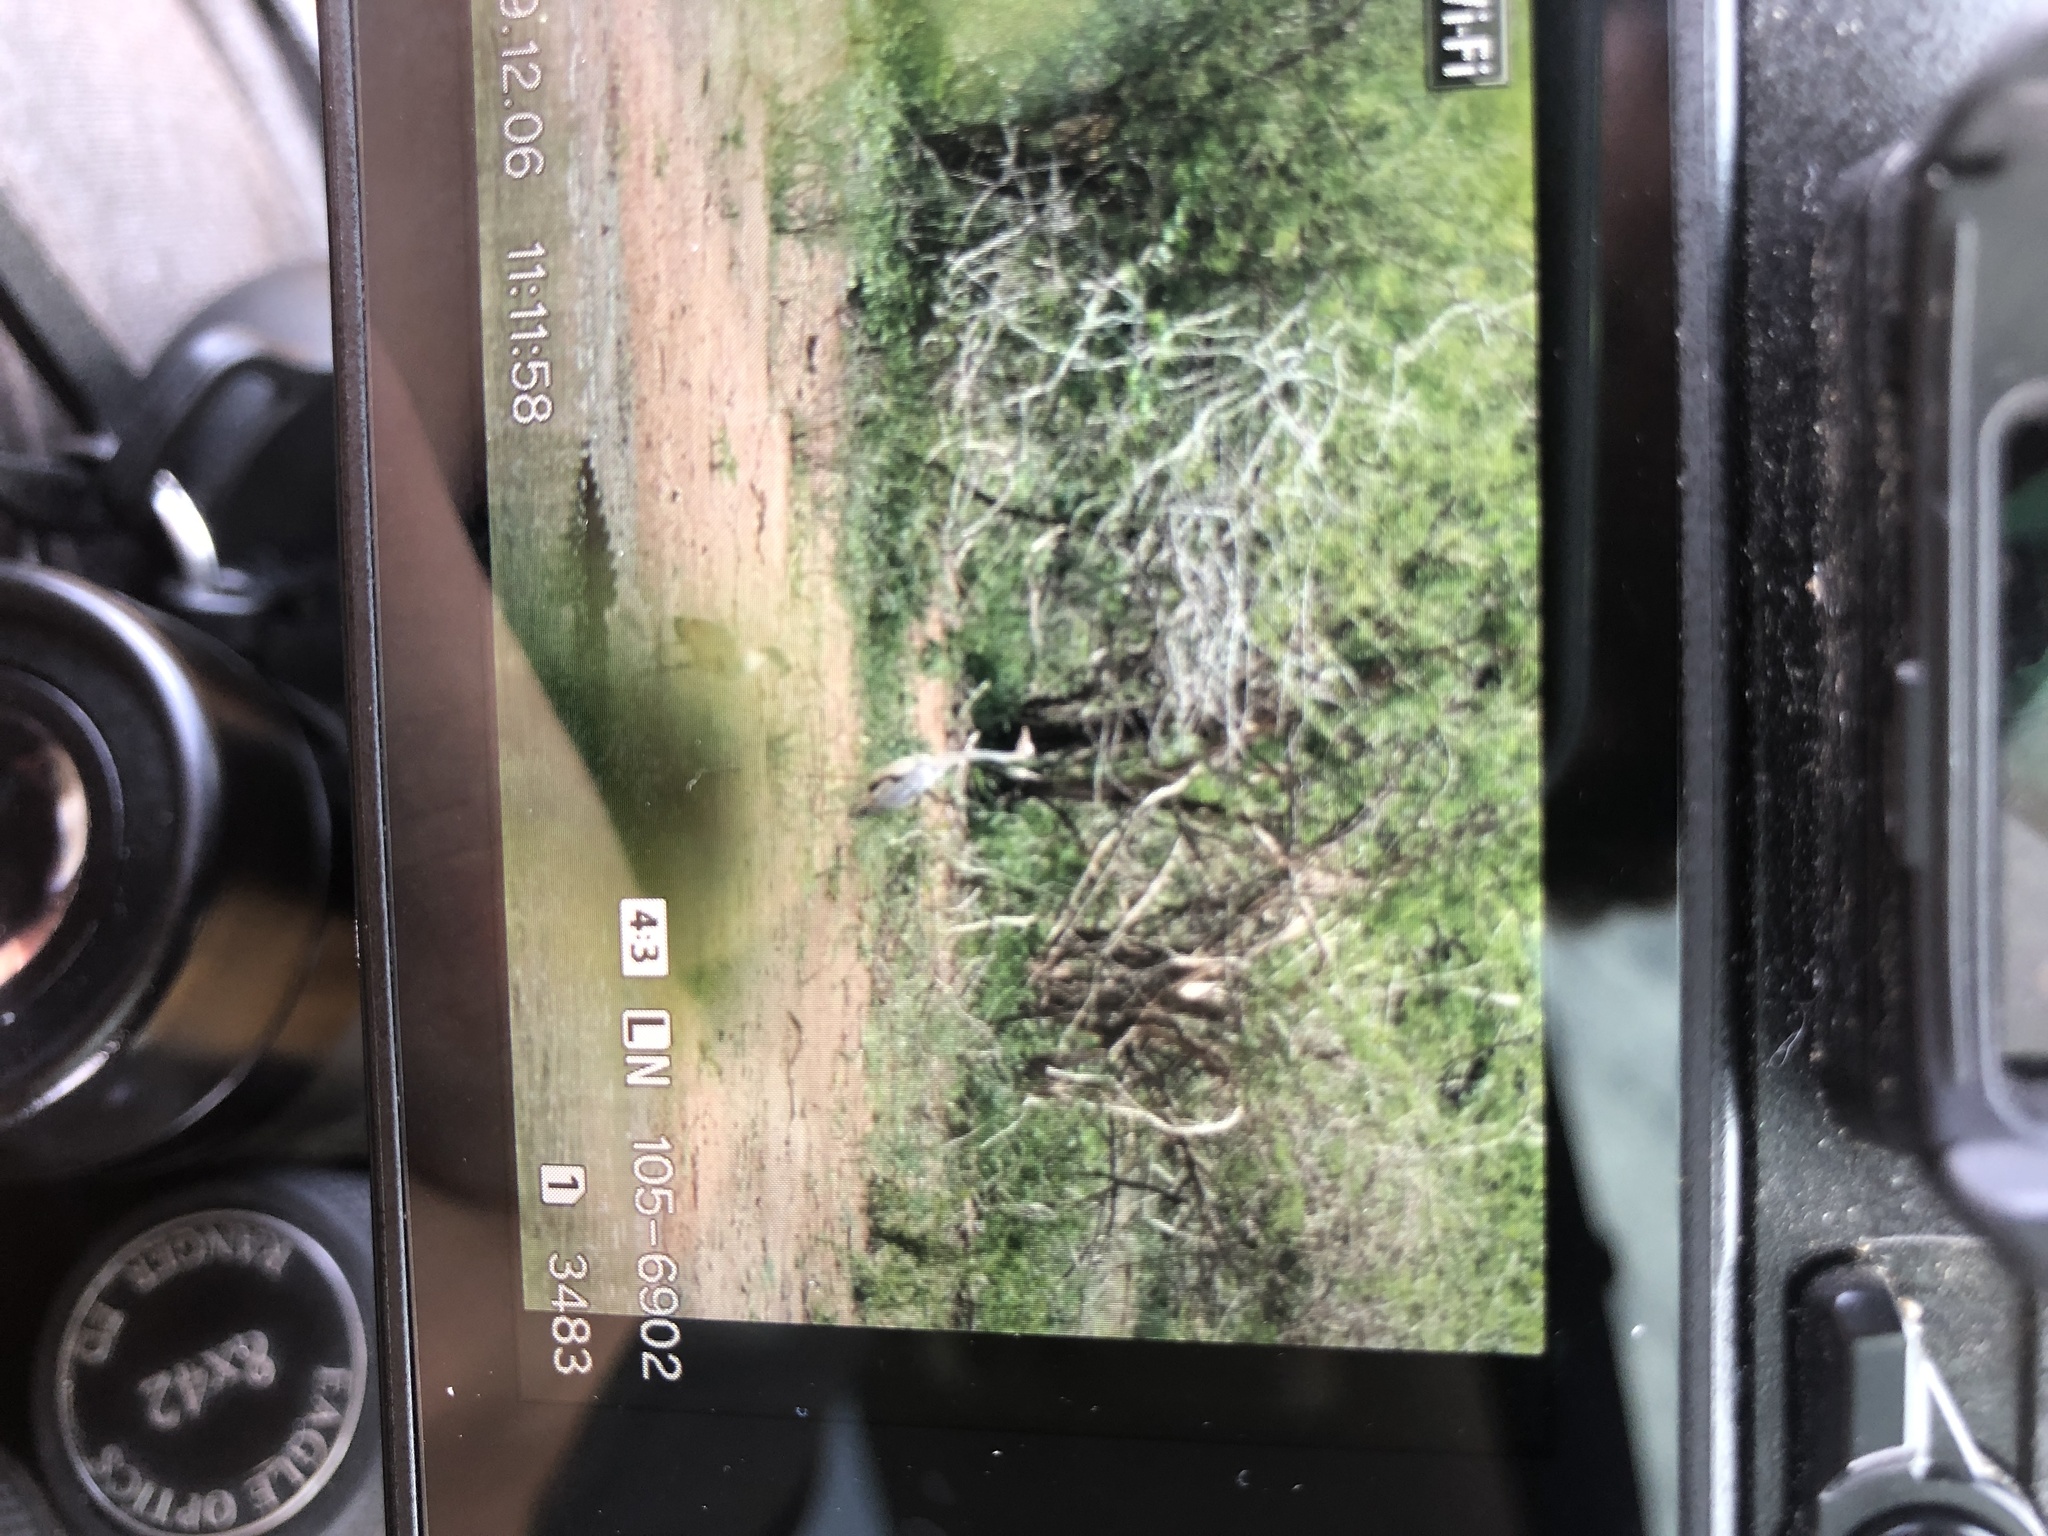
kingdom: Animalia
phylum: Chordata
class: Aves
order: Pelecaniformes
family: Ardeidae
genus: Ardea
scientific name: Ardea cinerea
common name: Grey heron
